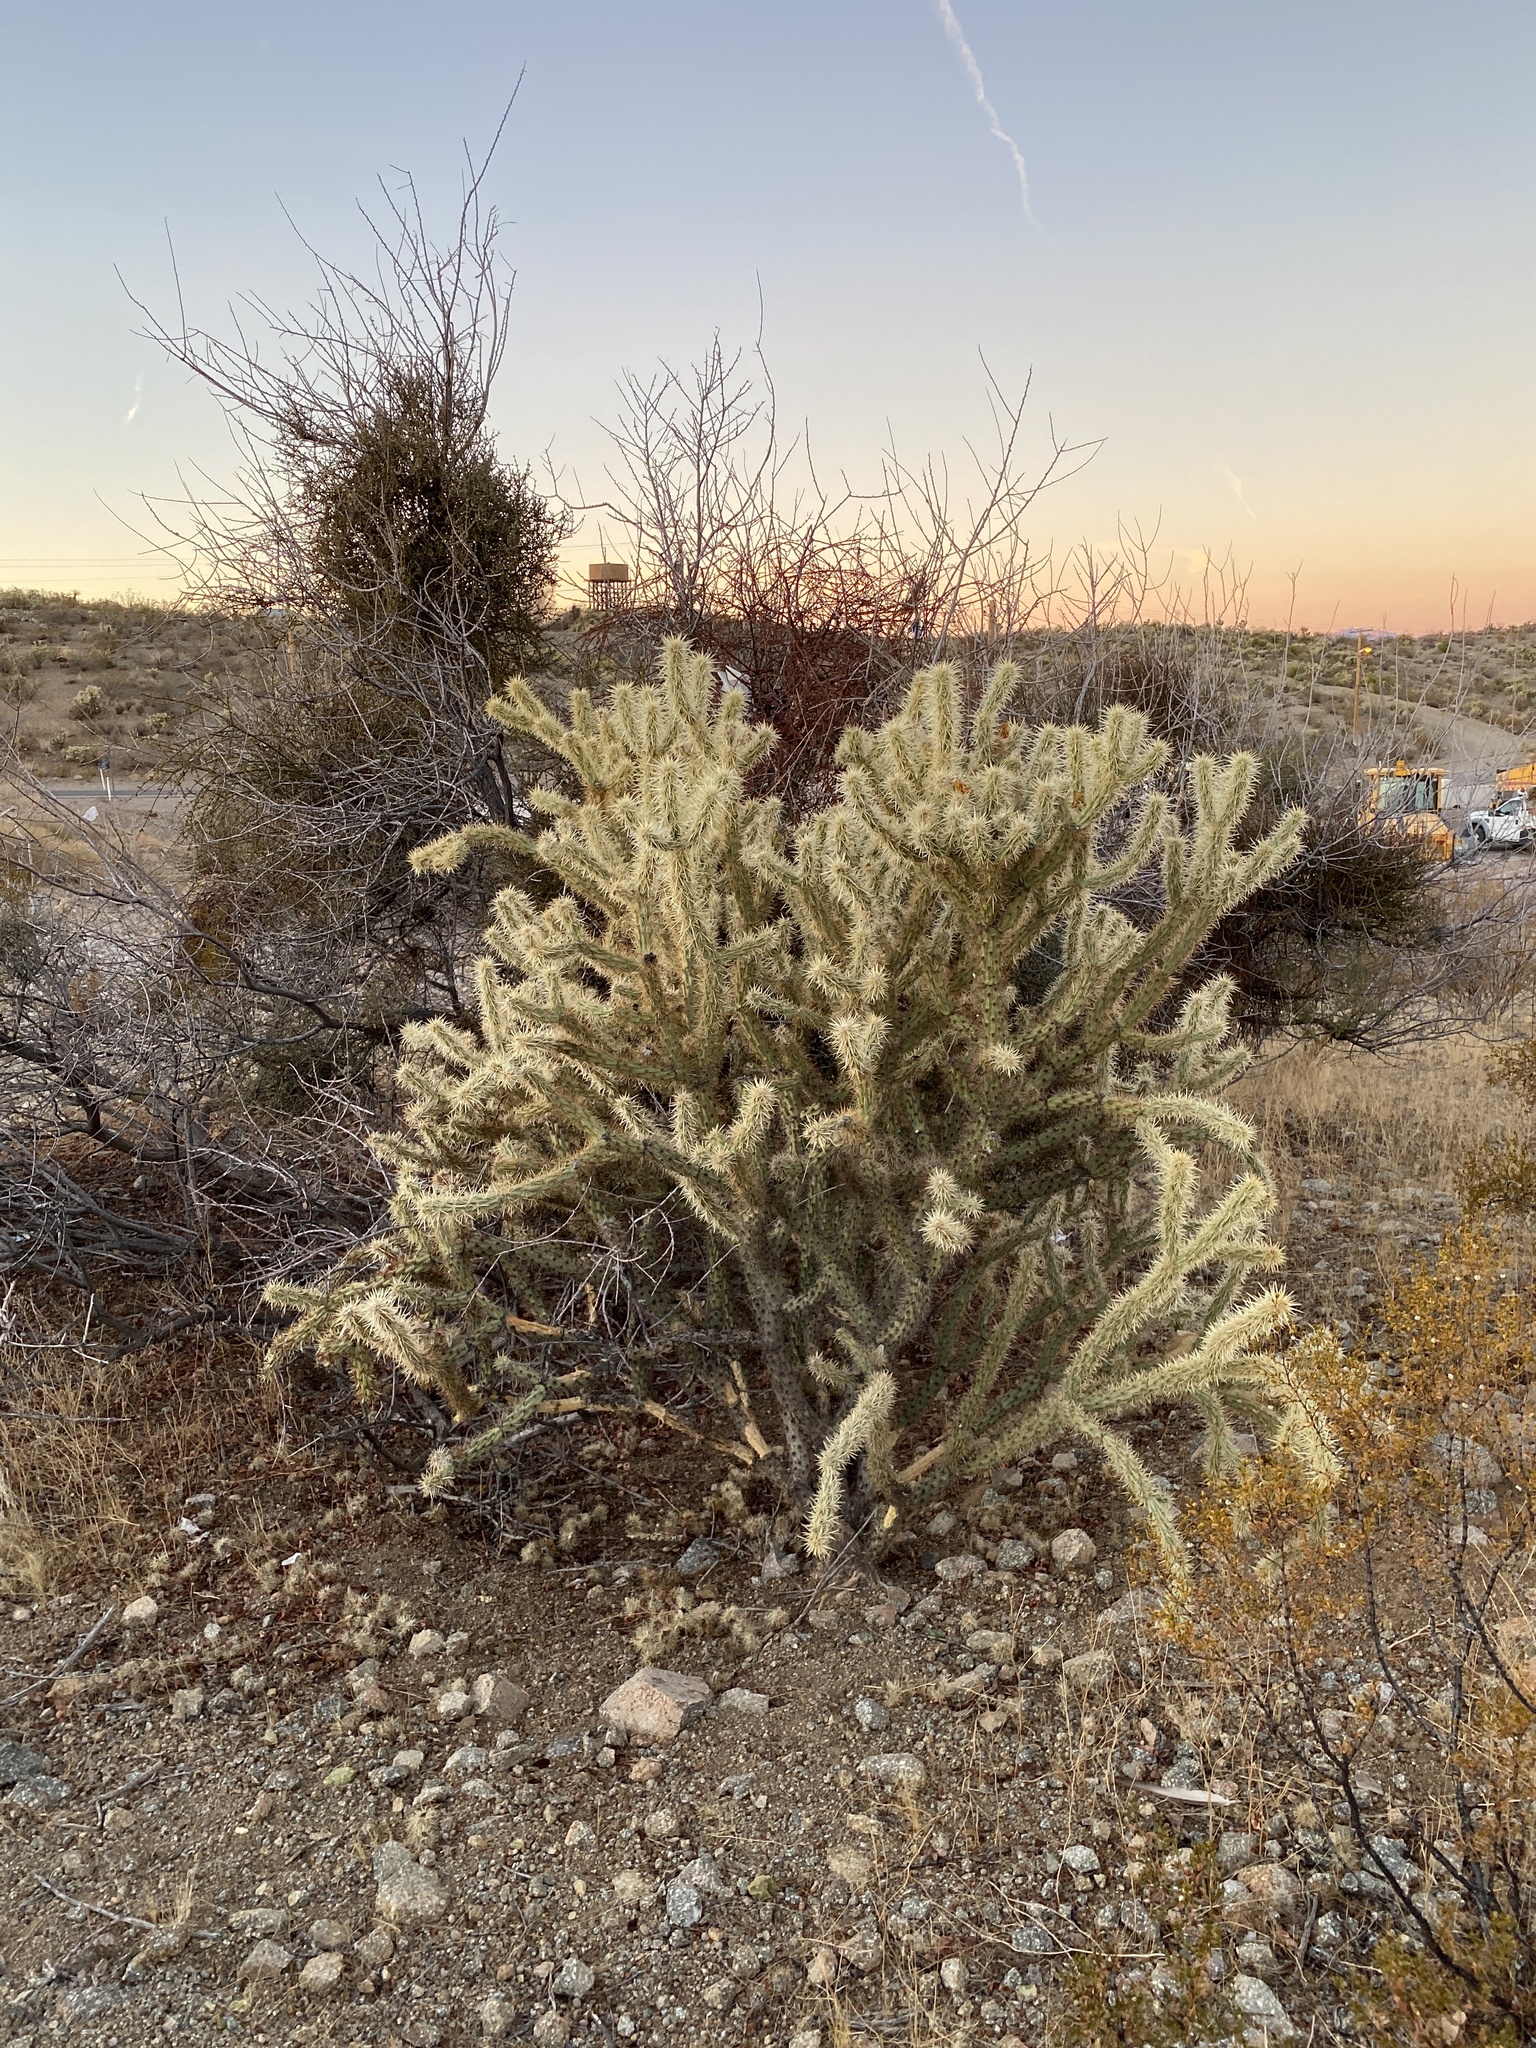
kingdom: Plantae
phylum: Tracheophyta
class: Magnoliopsida
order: Caryophyllales
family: Cactaceae
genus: Cylindropuntia
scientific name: Cylindropuntia acanthocarpa
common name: Buckhorn cholla
